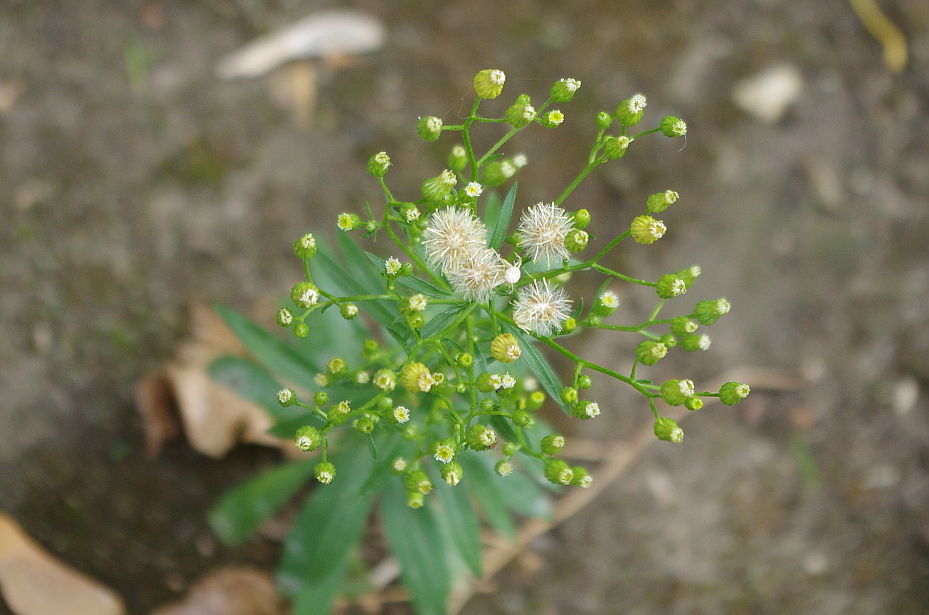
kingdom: Plantae
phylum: Tracheophyta
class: Magnoliopsida
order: Asterales
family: Asteraceae
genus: Erigeron
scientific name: Erigeron canadensis
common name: Canadian fleabane
